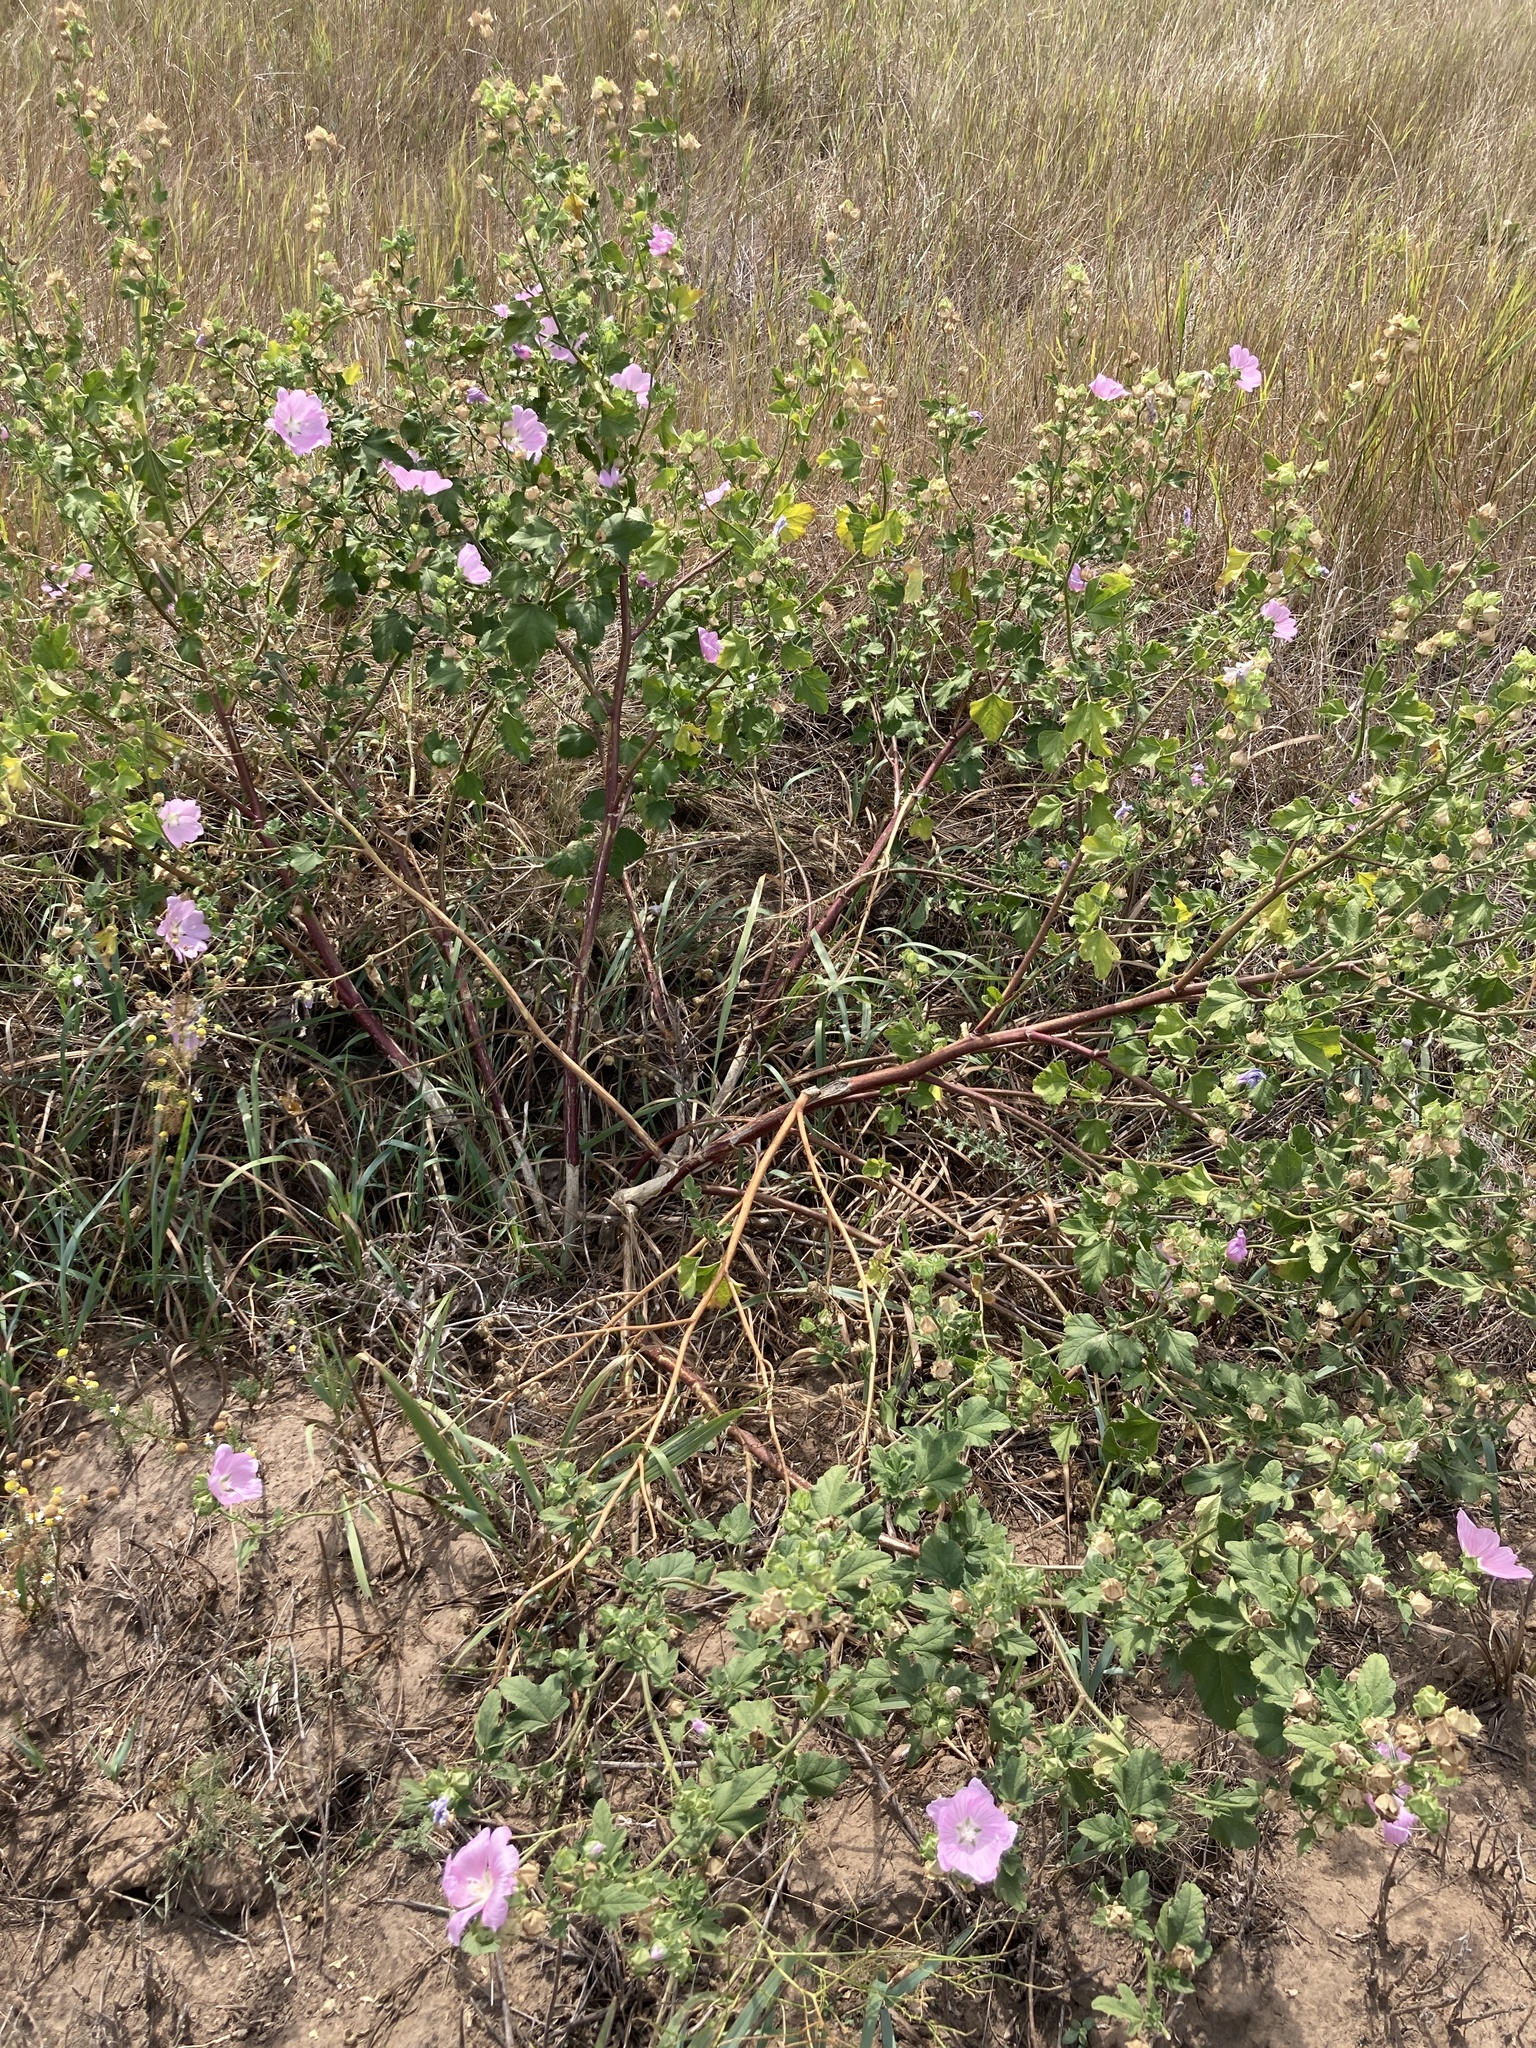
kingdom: Plantae
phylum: Tracheophyta
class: Magnoliopsida
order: Malvales
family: Malvaceae
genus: Malva
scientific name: Malva thuringiaca
